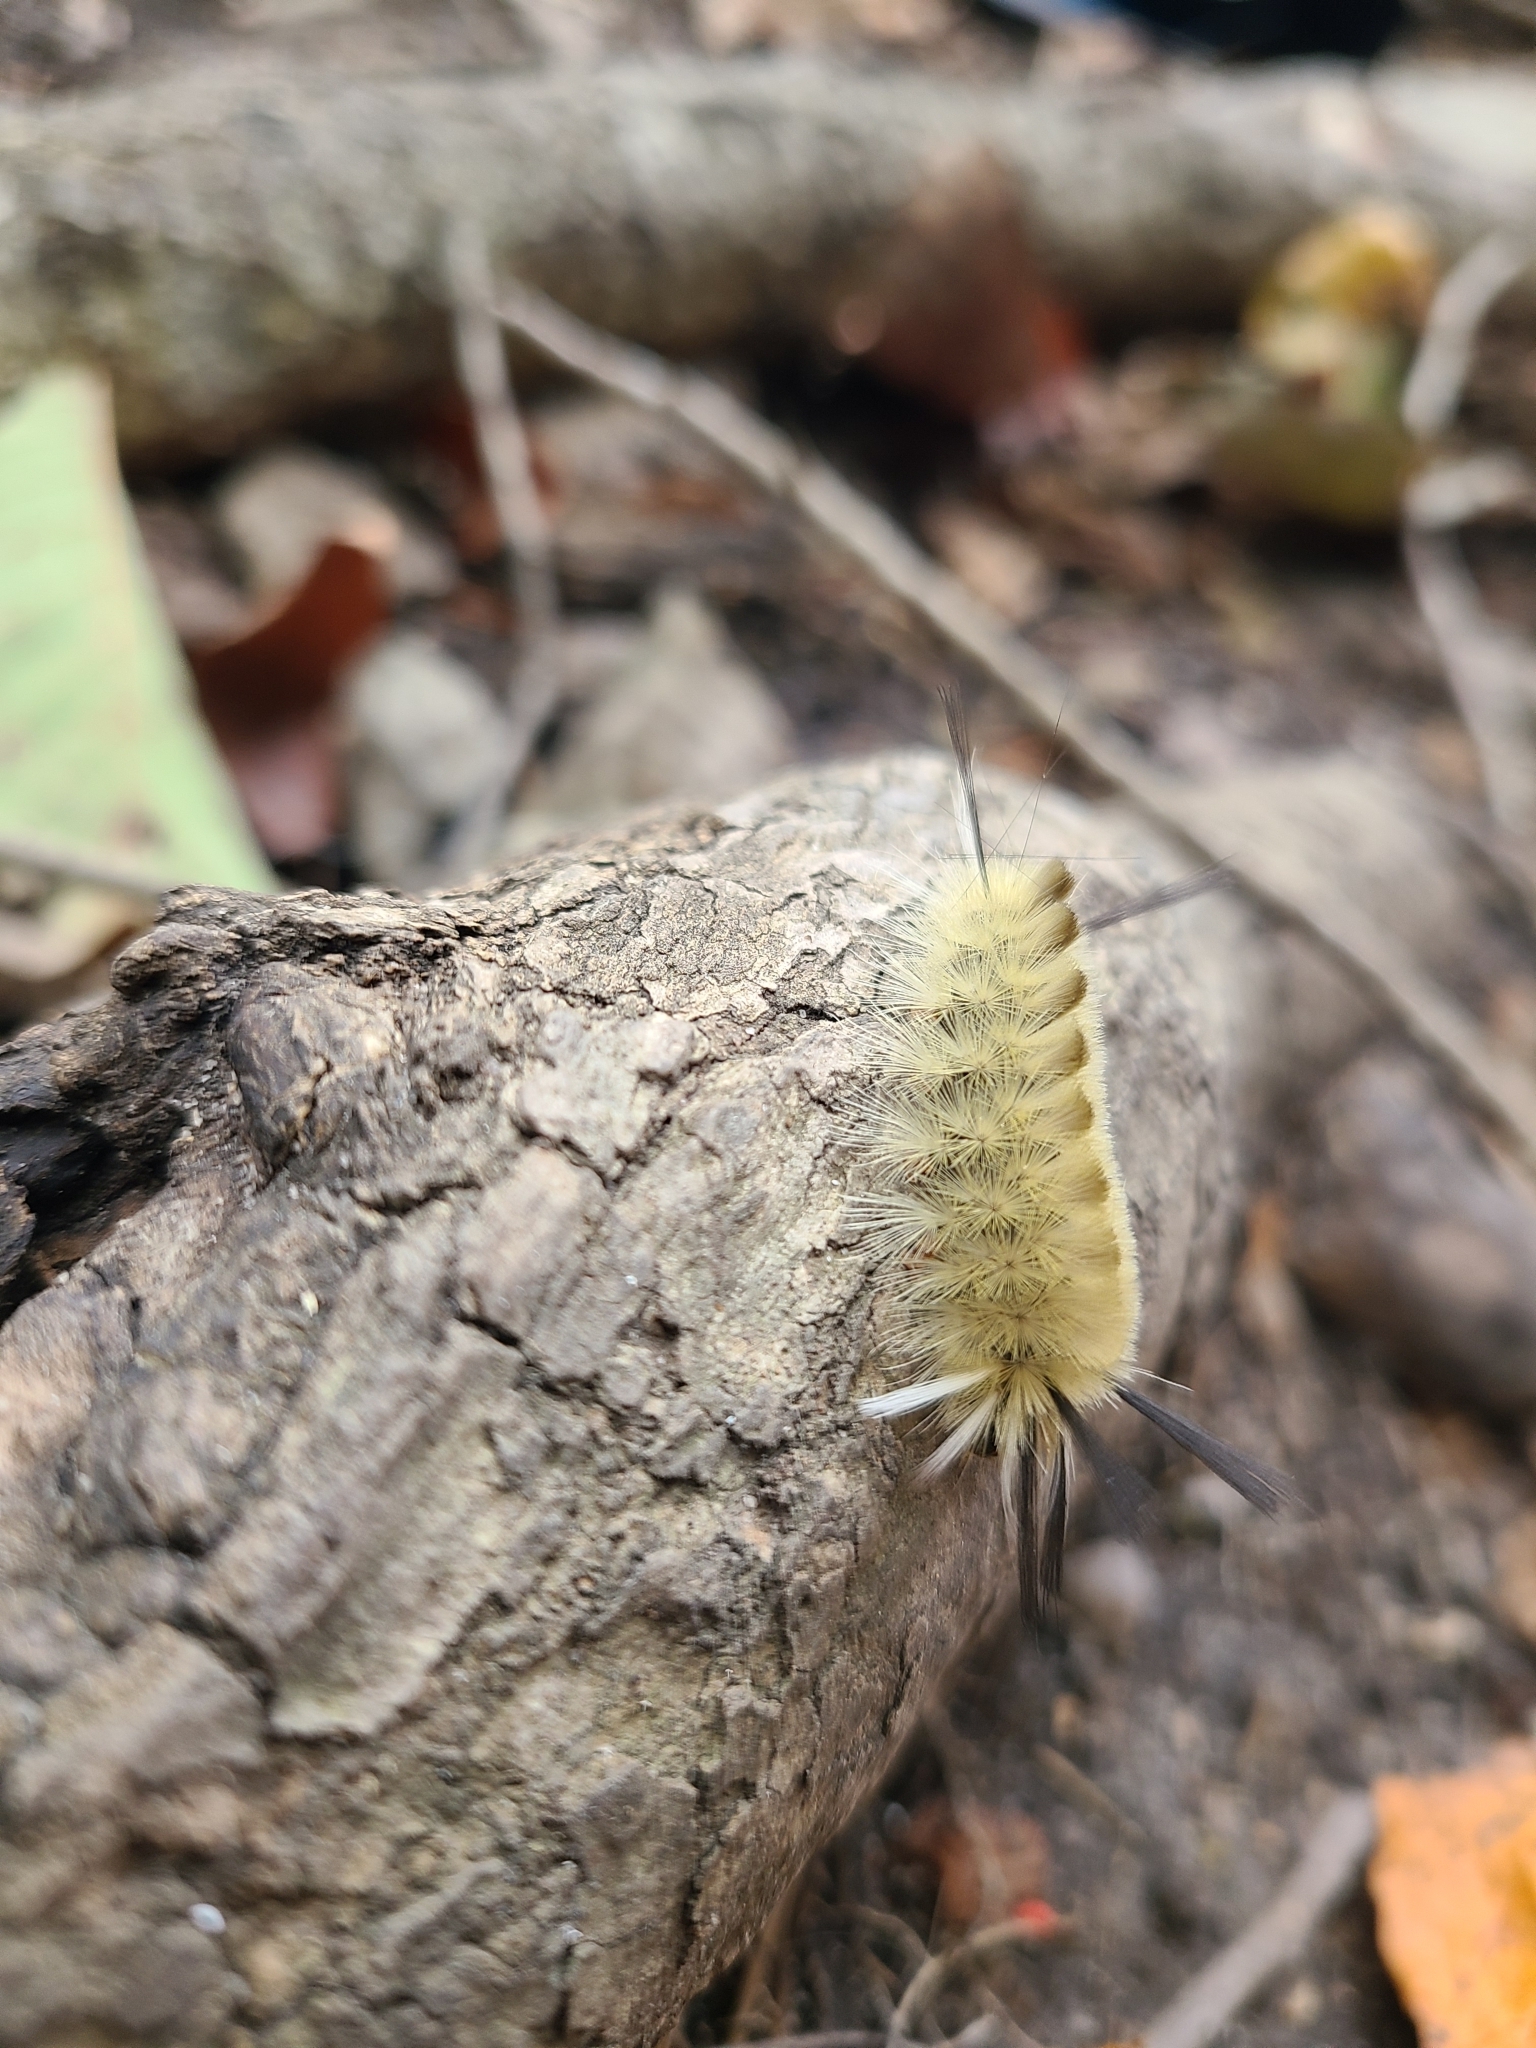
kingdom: Animalia
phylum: Arthropoda
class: Insecta
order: Lepidoptera
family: Erebidae
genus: Halysidota
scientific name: Halysidota tessellaris
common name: Banded tussock moth
